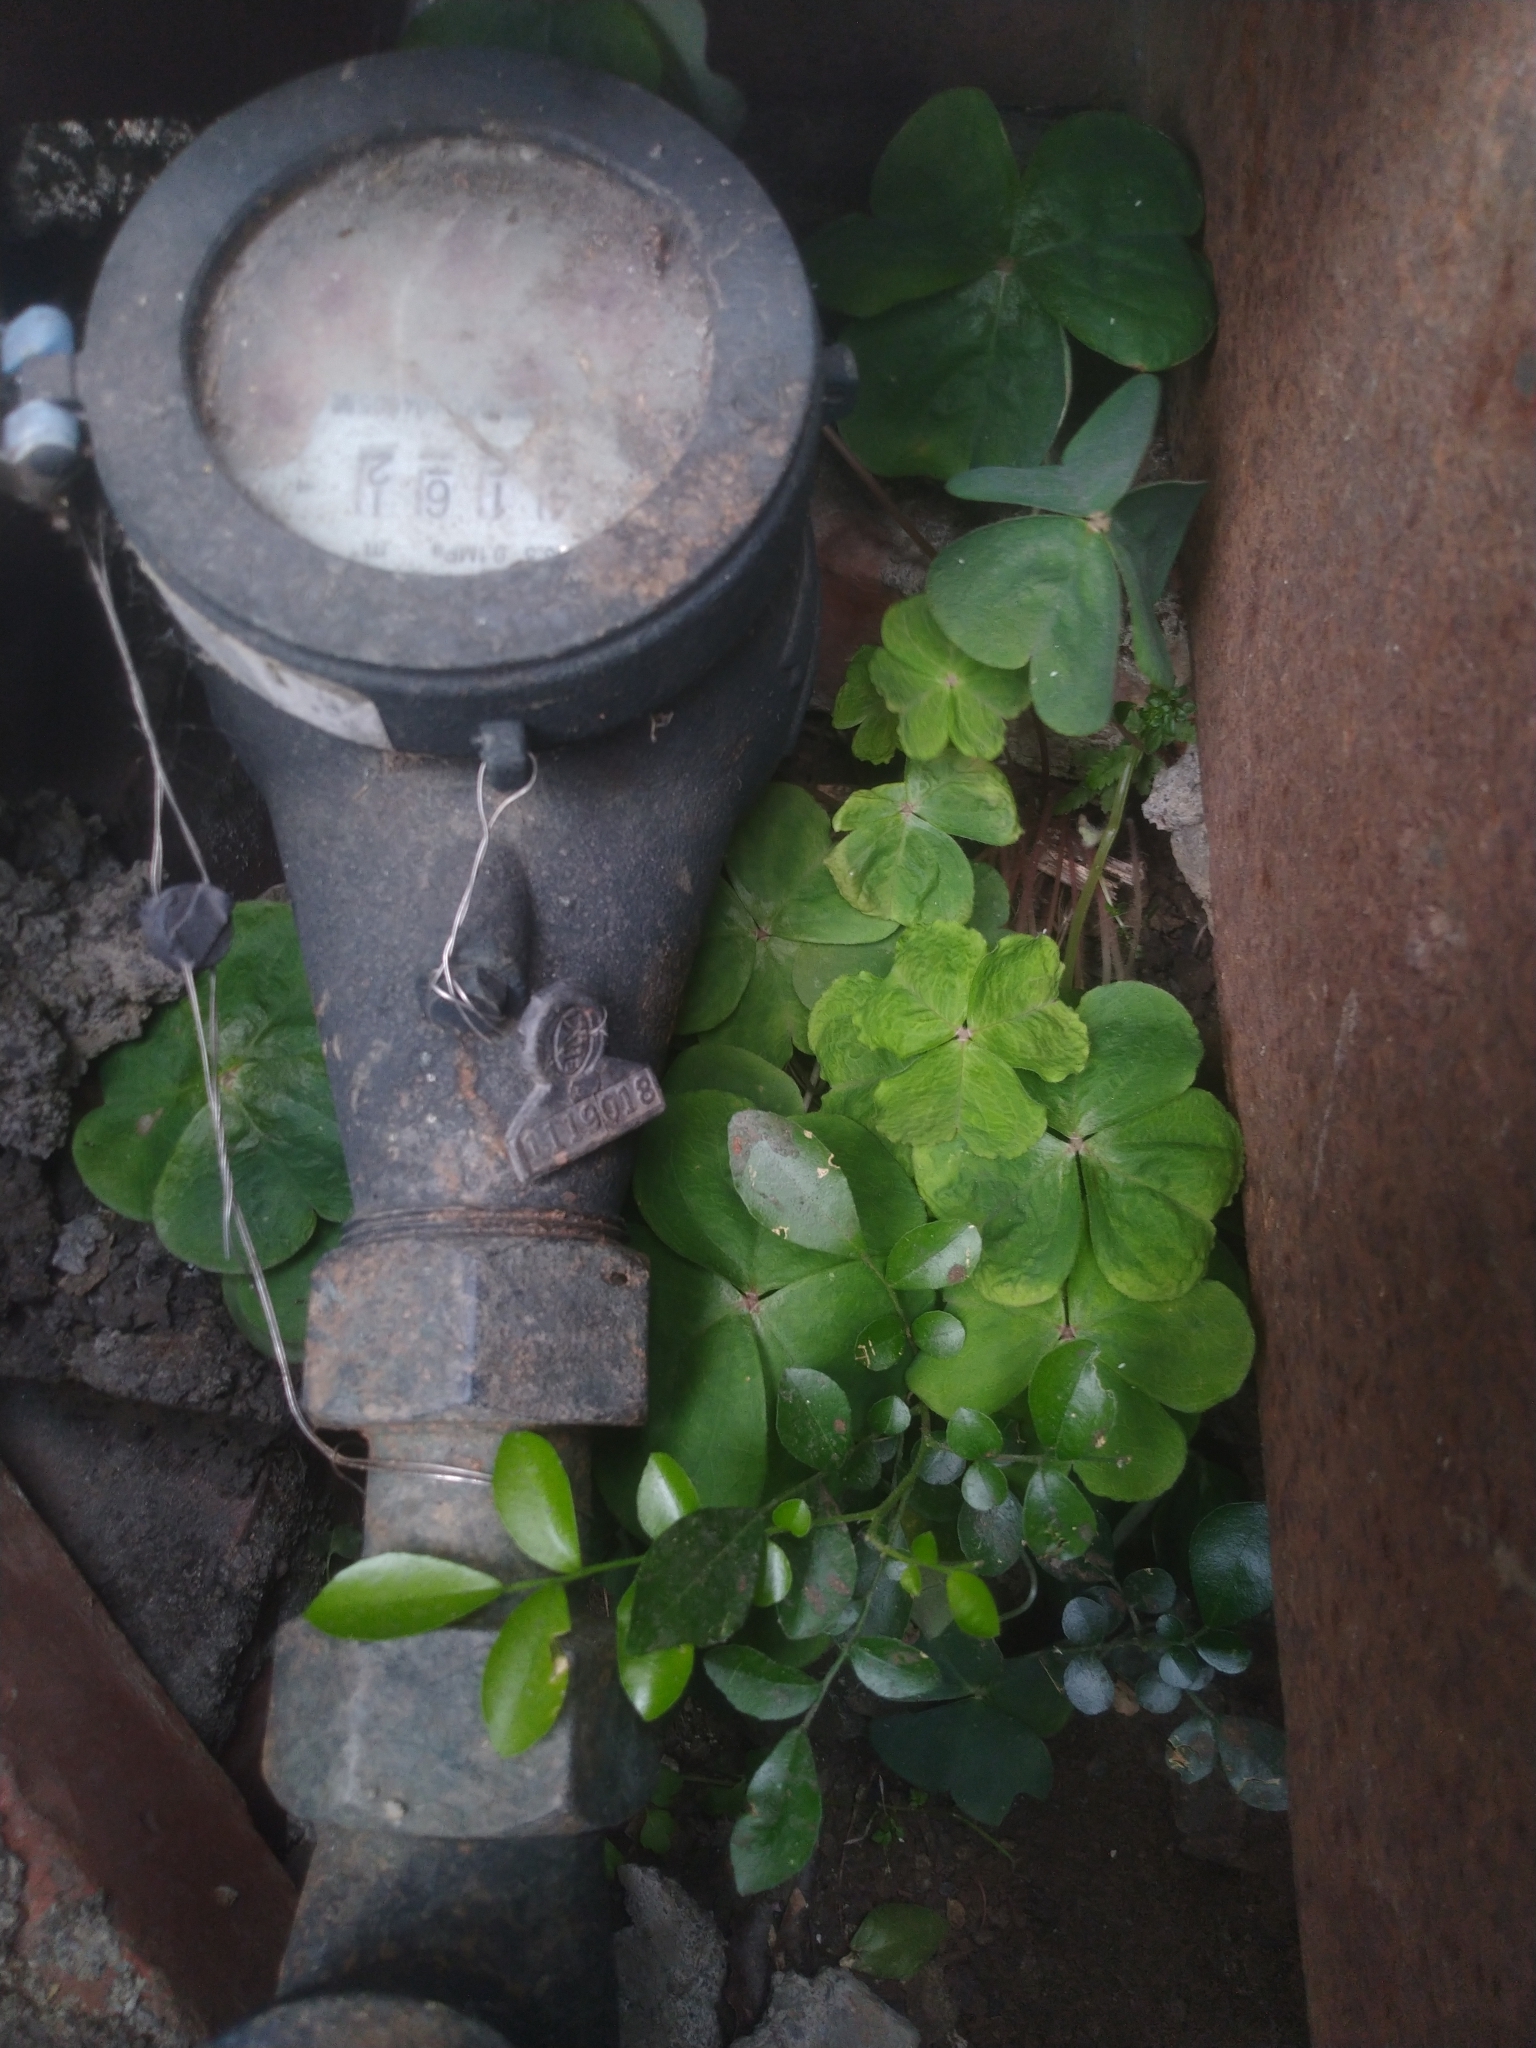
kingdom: Plantae
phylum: Tracheophyta
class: Magnoliopsida
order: Oxalidales
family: Oxalidaceae
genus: Oxalis
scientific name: Oxalis debilis
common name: Large-flowered pink-sorrel
